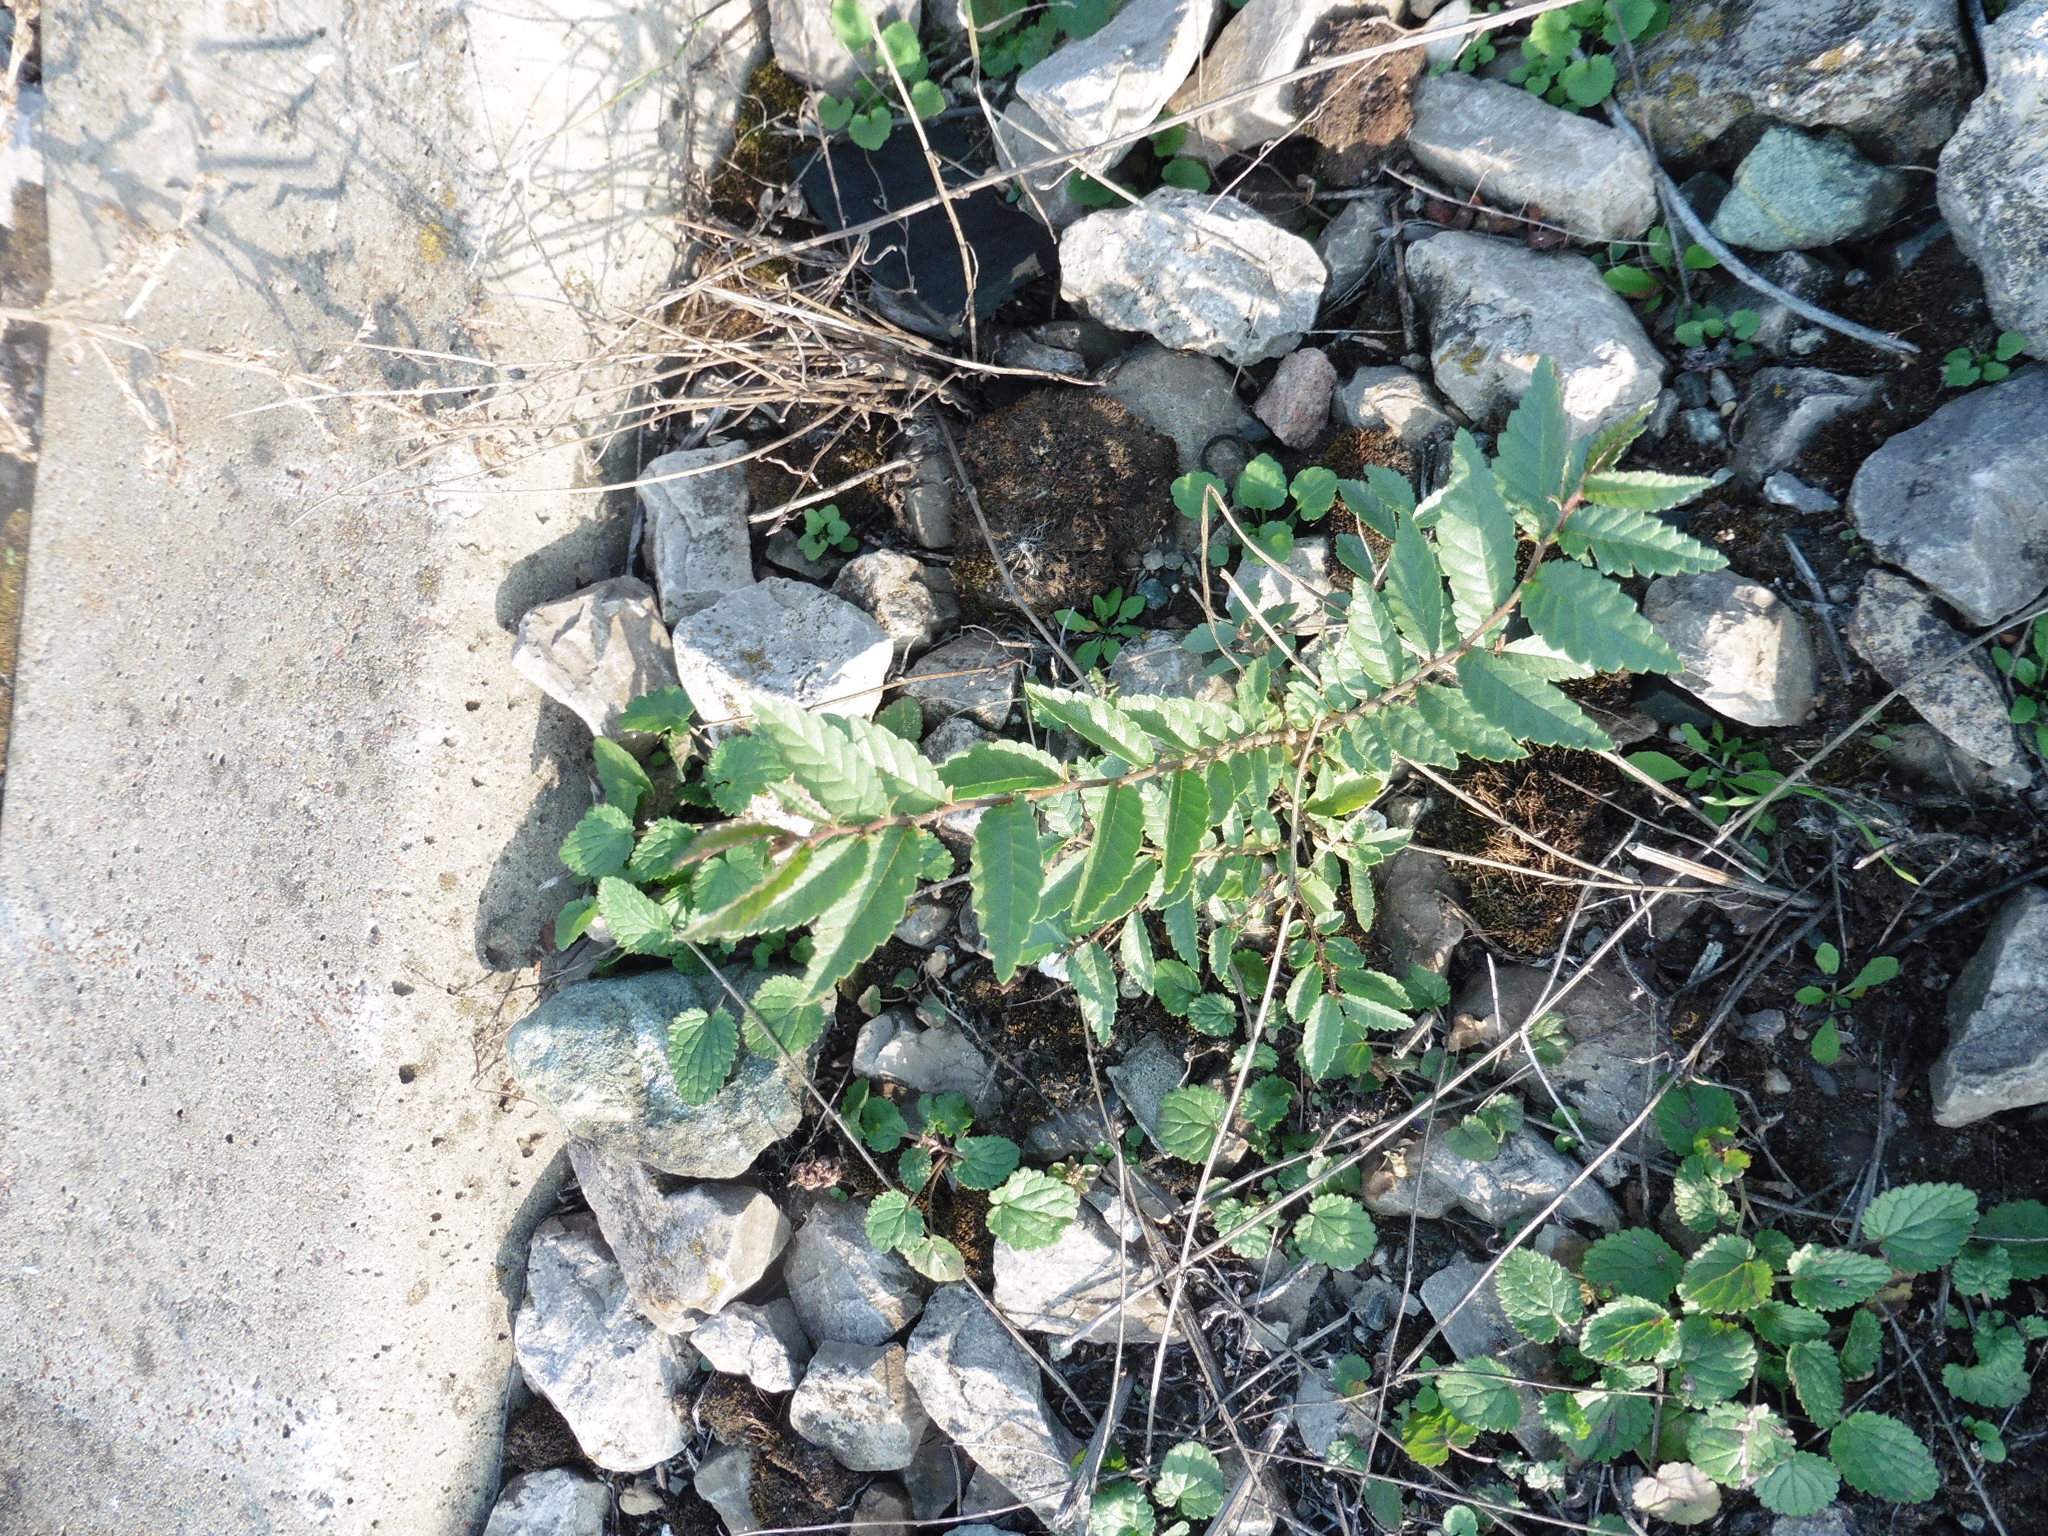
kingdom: Plantae
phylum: Tracheophyta
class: Magnoliopsida
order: Rosales
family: Ulmaceae
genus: Ulmus
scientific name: Ulmus pumila
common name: Siberian elm
